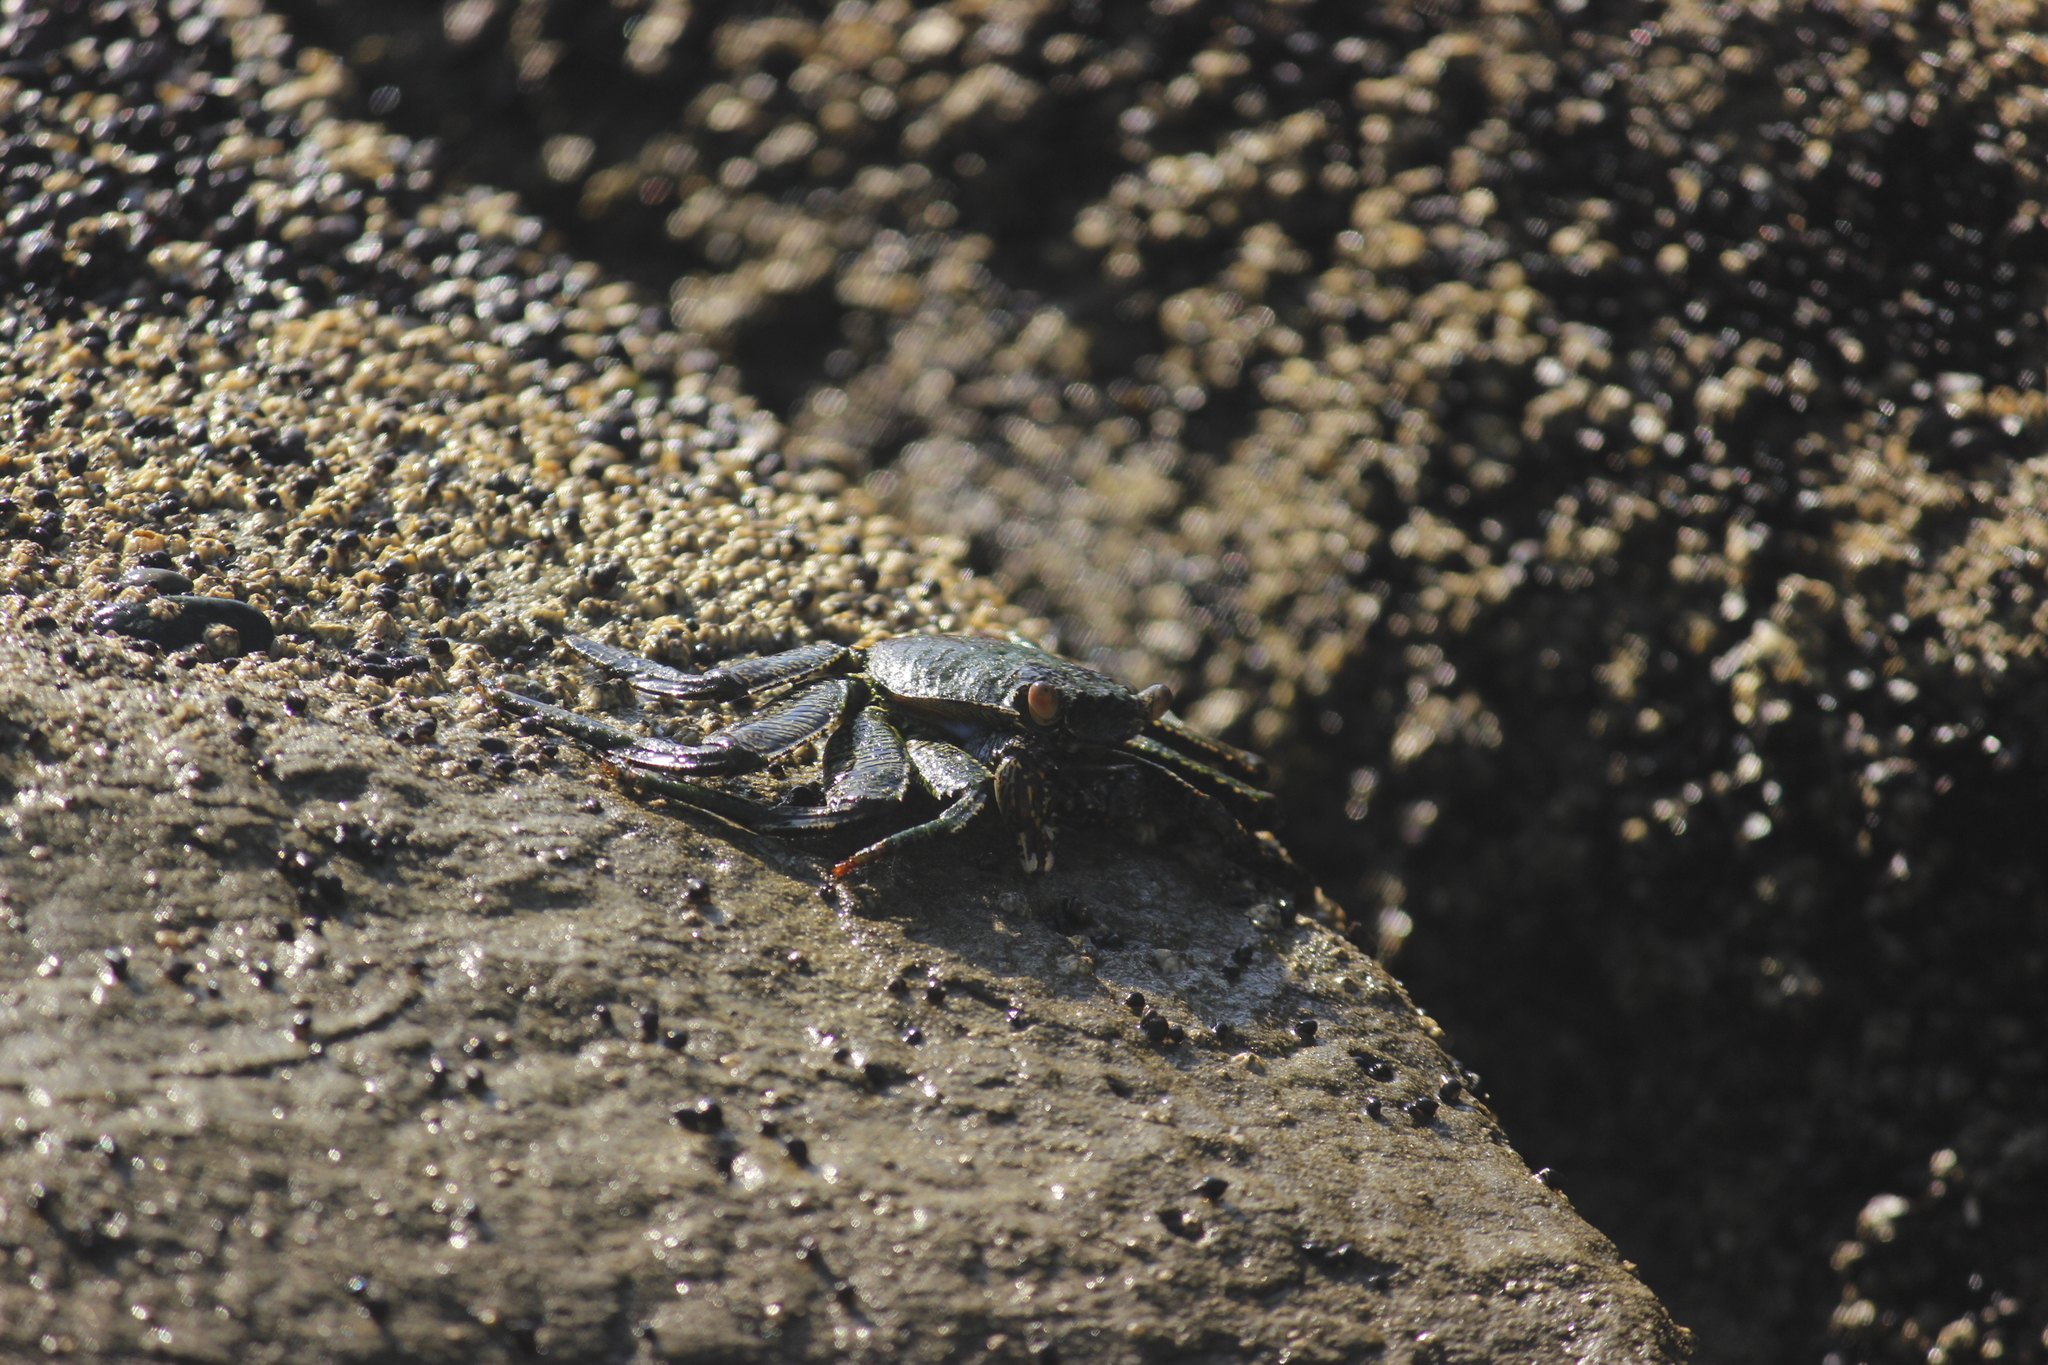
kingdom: Animalia
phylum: Arthropoda
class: Malacostraca
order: Decapoda
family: Grapsidae
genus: Grapsus
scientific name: Grapsus grapsus
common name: Sally lightfoot
